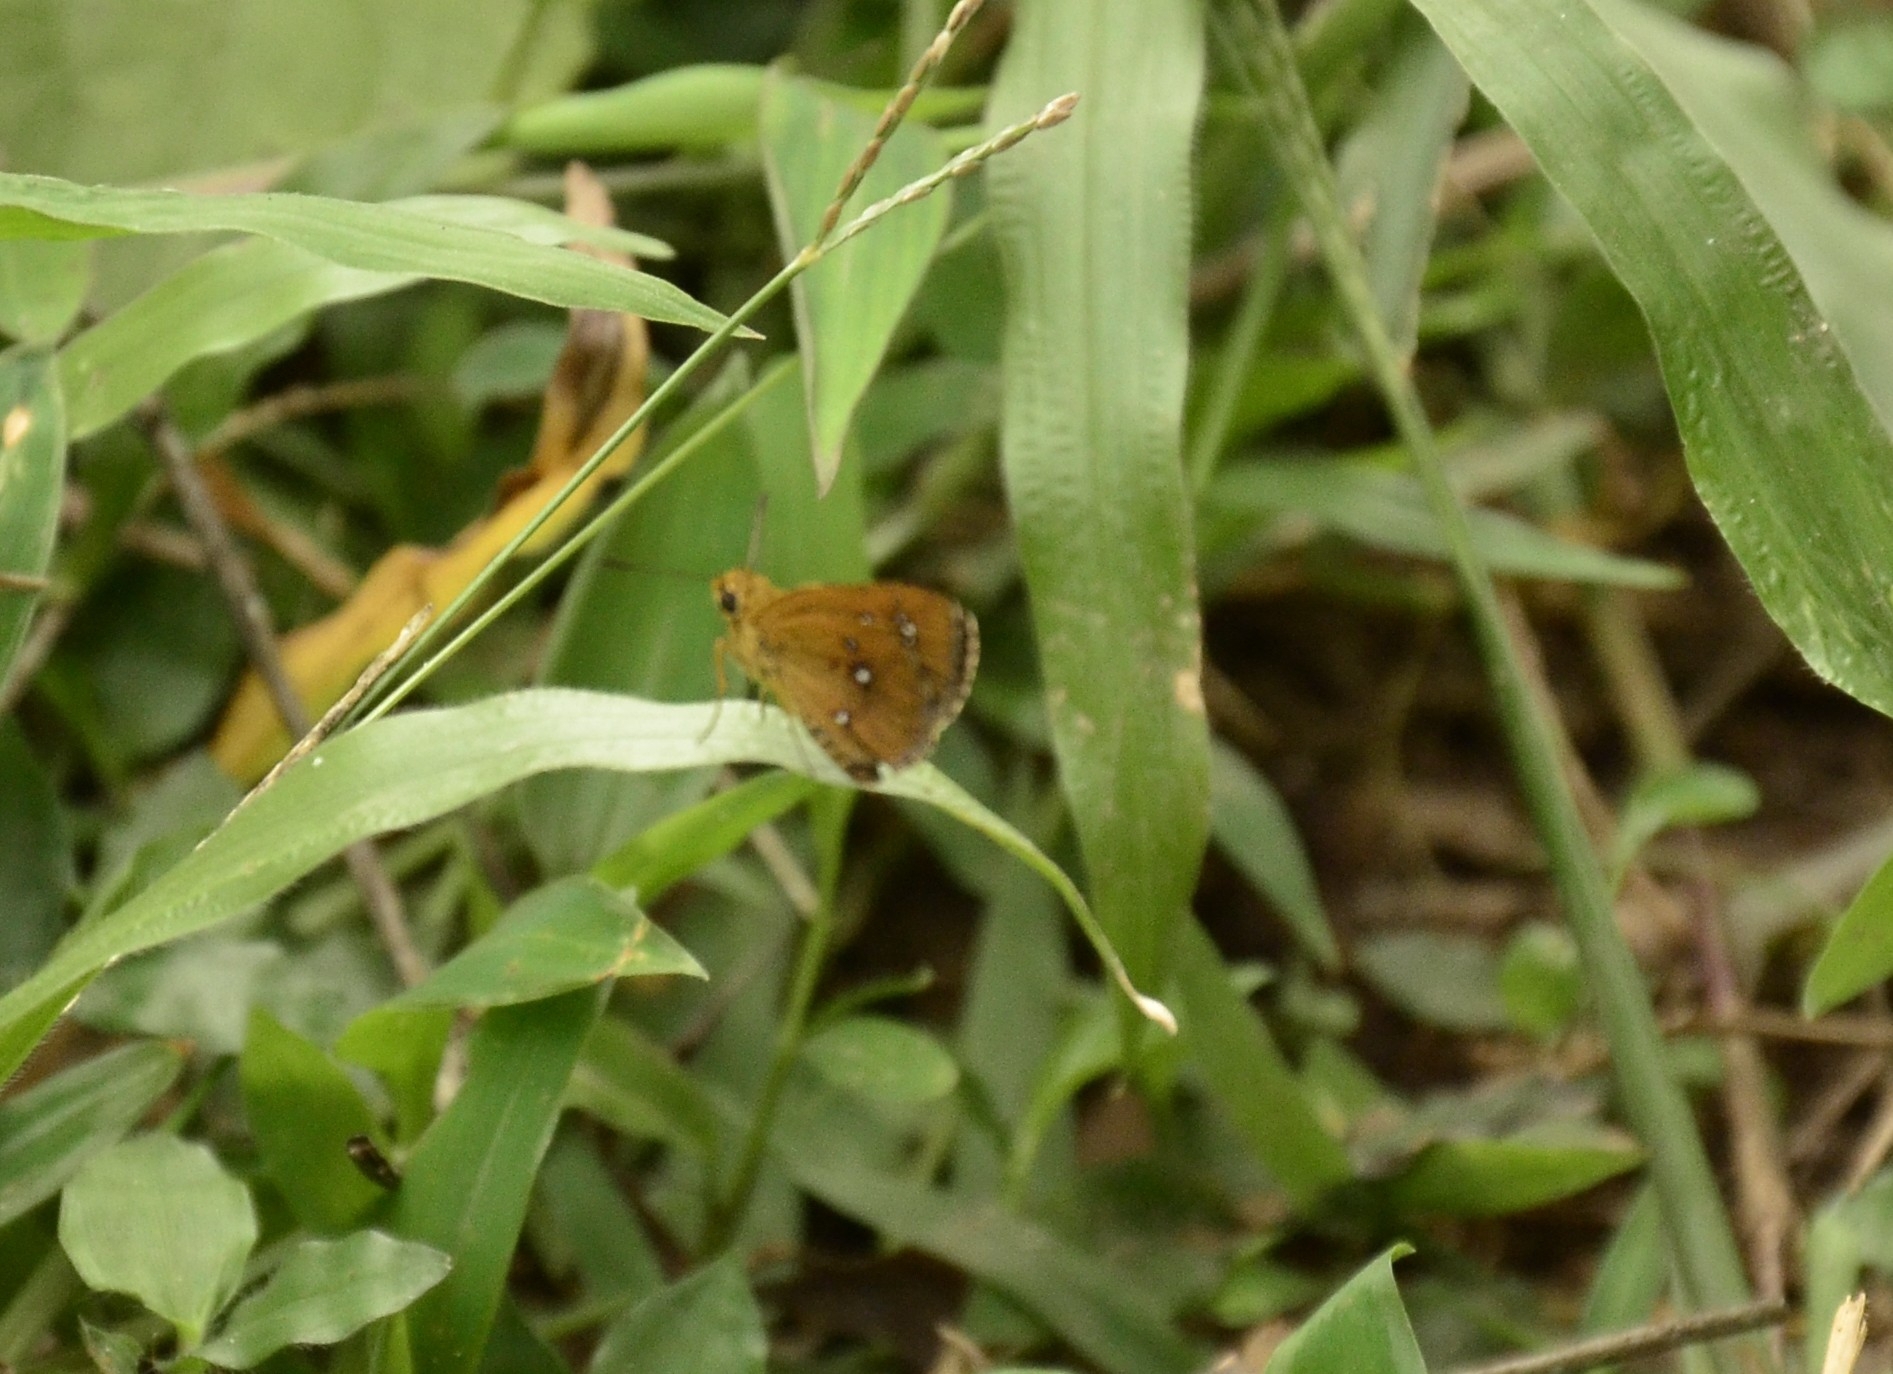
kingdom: Animalia
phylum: Arthropoda
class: Insecta
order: Lepidoptera
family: Hesperiidae
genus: Iambrix
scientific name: Iambrix salsala
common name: Chestnut bob
